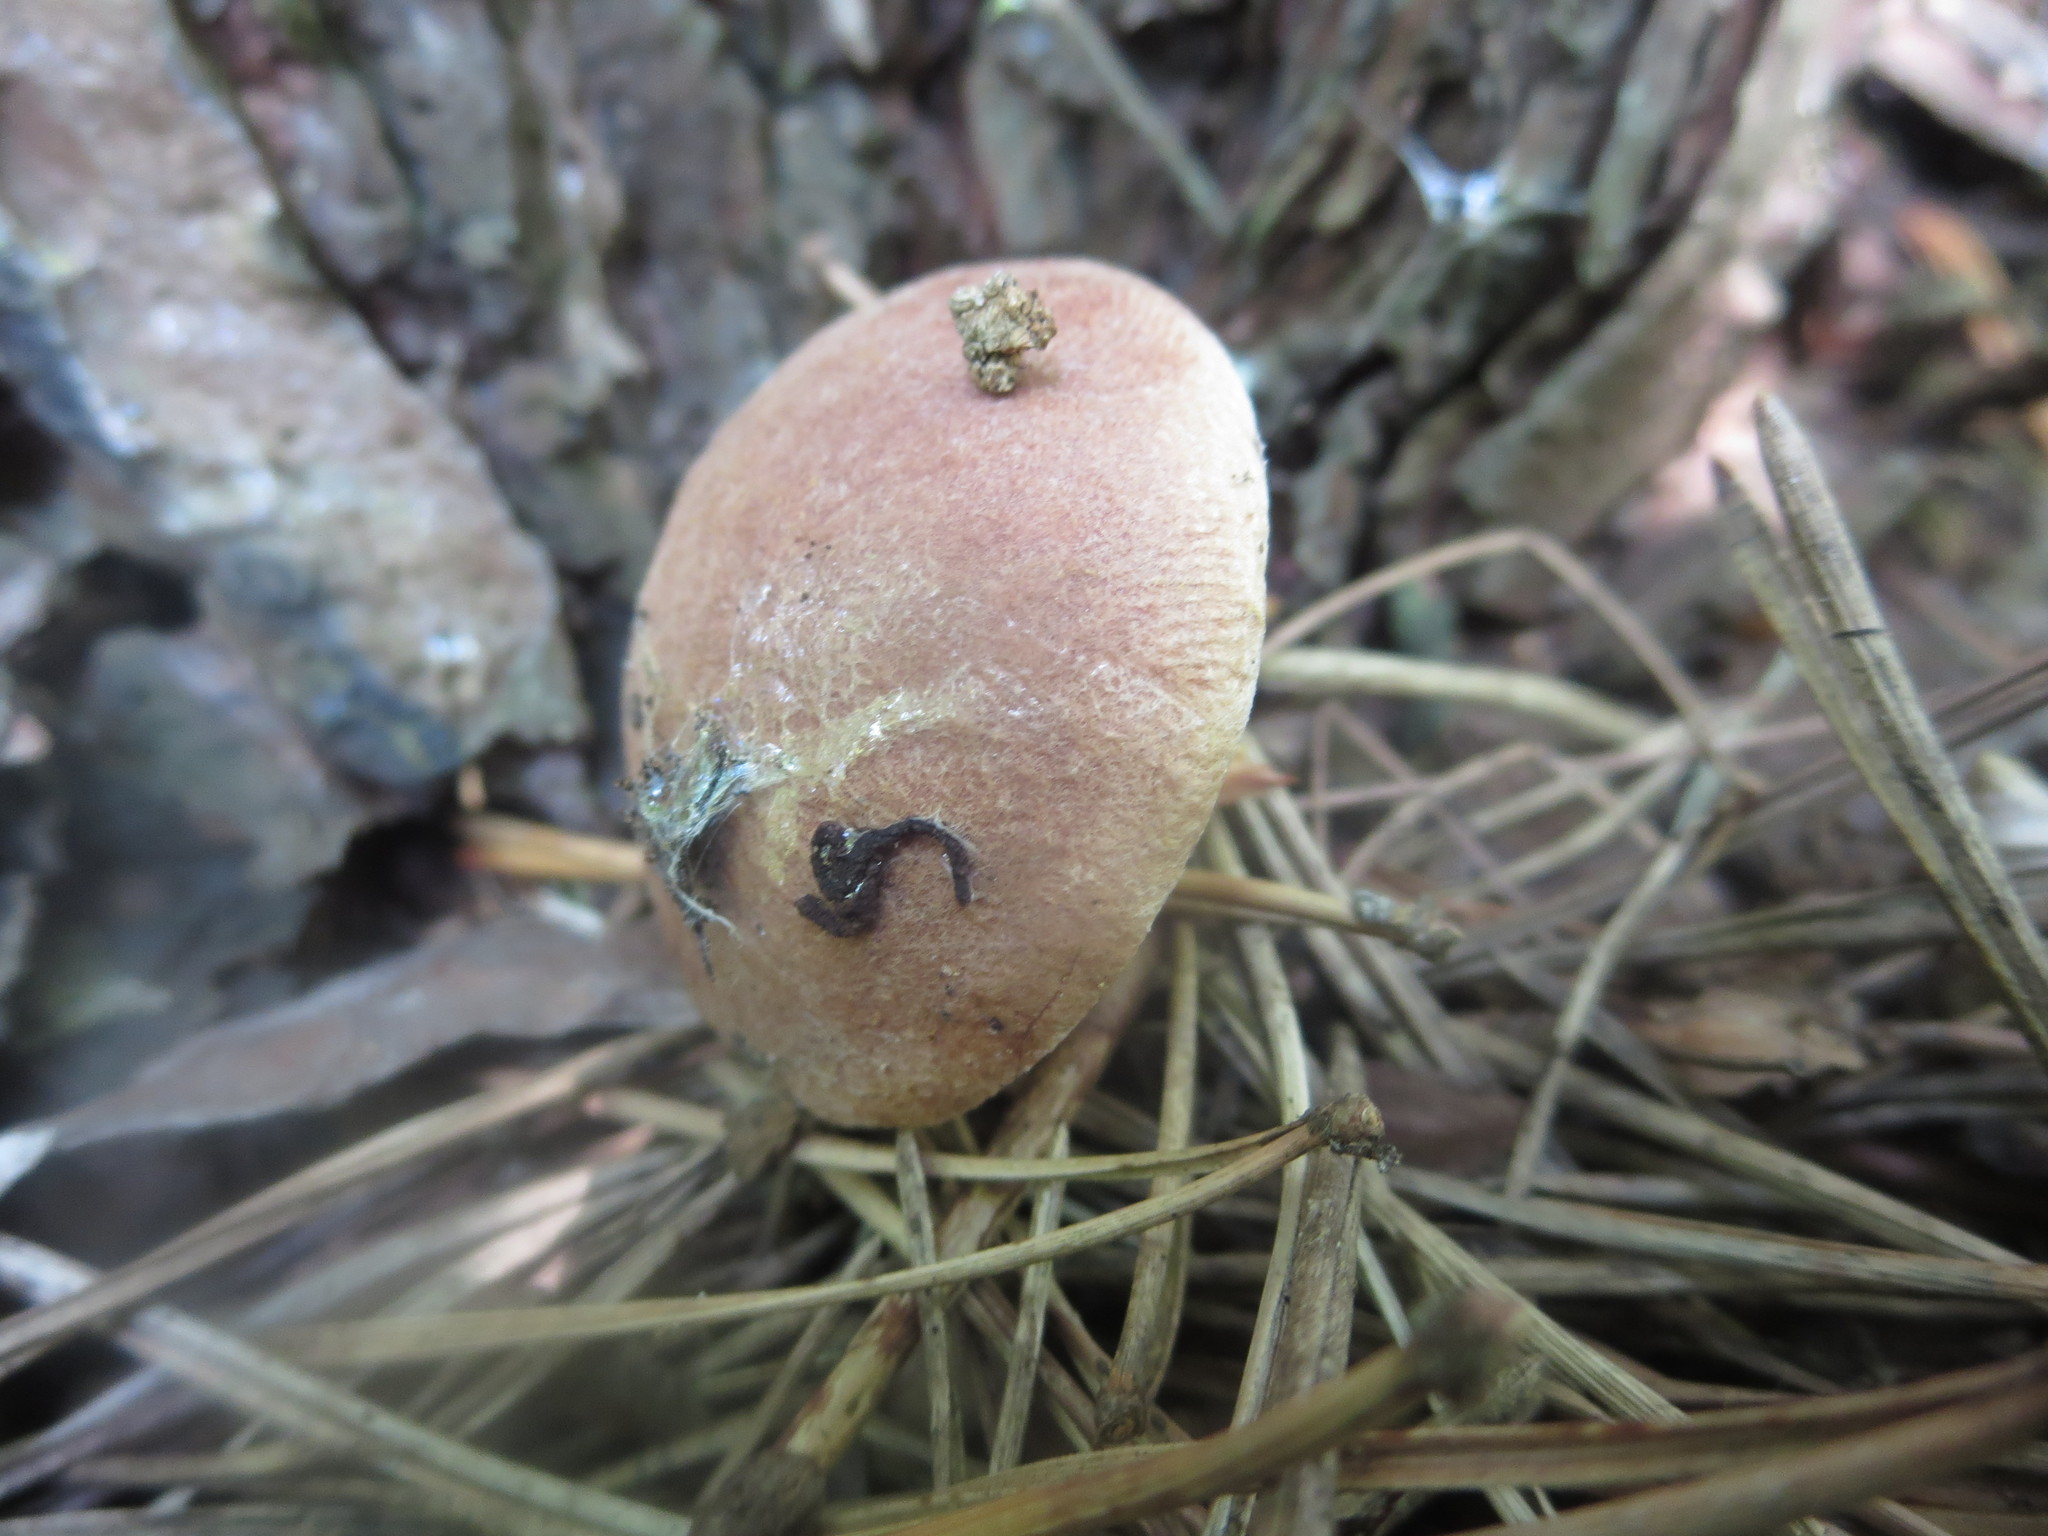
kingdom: Fungi
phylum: Basidiomycota
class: Agaricomycetes
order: Boletales
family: Boletaceae
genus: Aureoboletus
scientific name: Aureoboletus auriporus
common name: Sour gold-pored bolete
